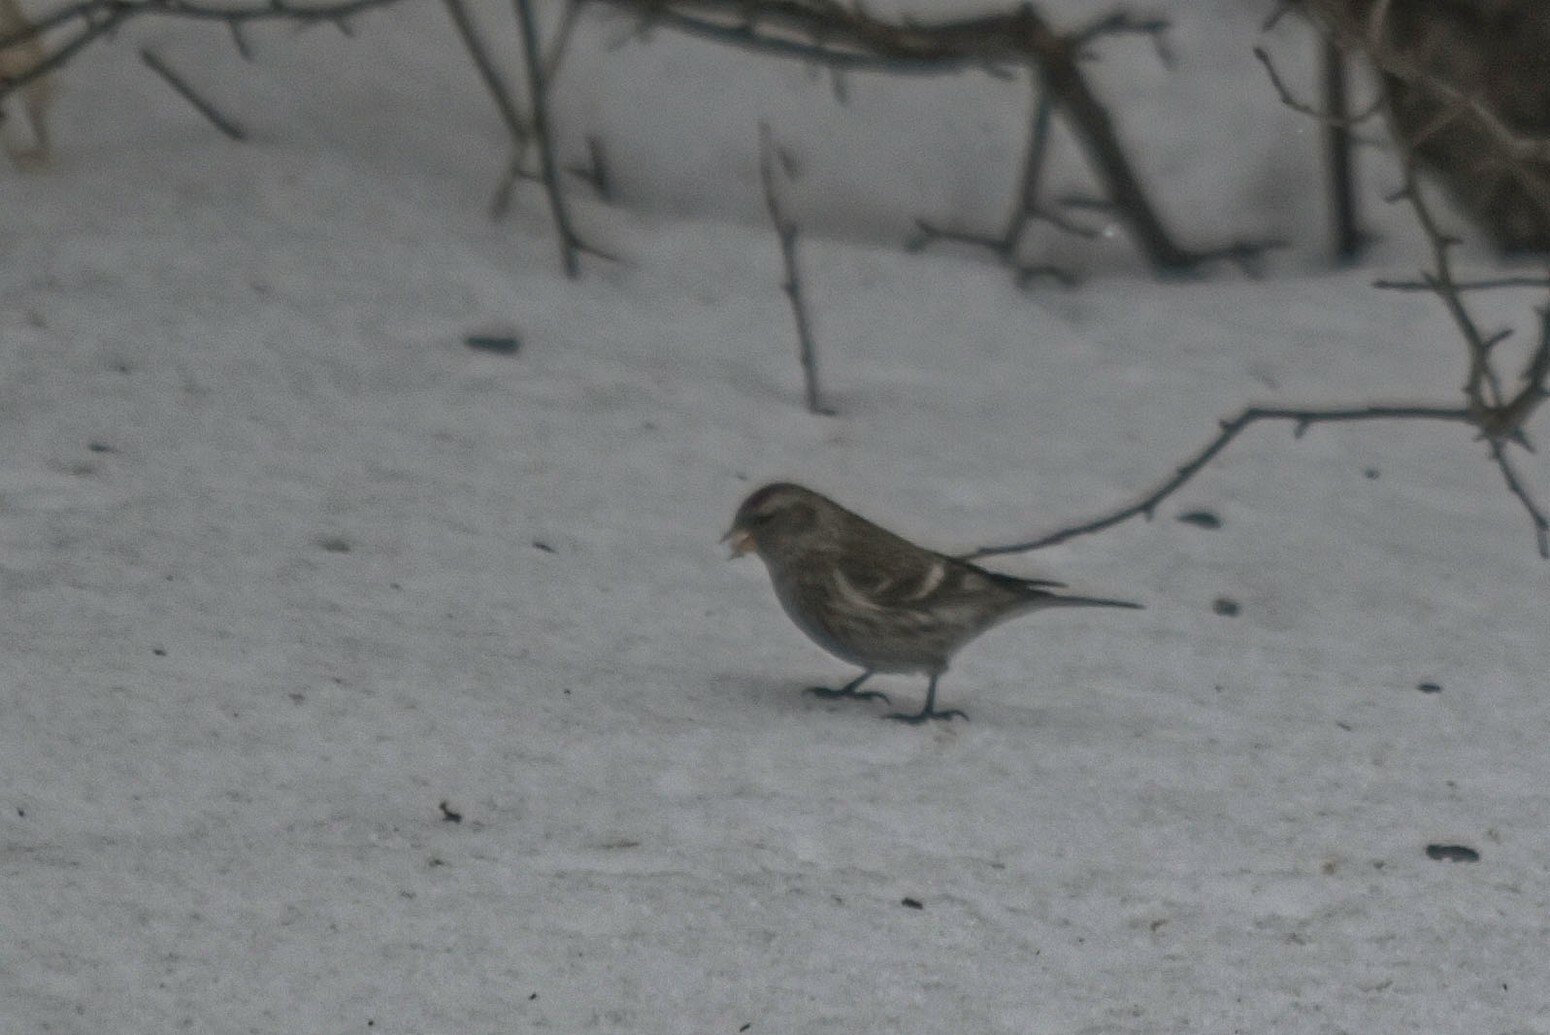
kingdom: Animalia
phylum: Chordata
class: Aves
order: Passeriformes
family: Fringillidae
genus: Acanthis
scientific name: Acanthis flammea
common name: Common redpoll
